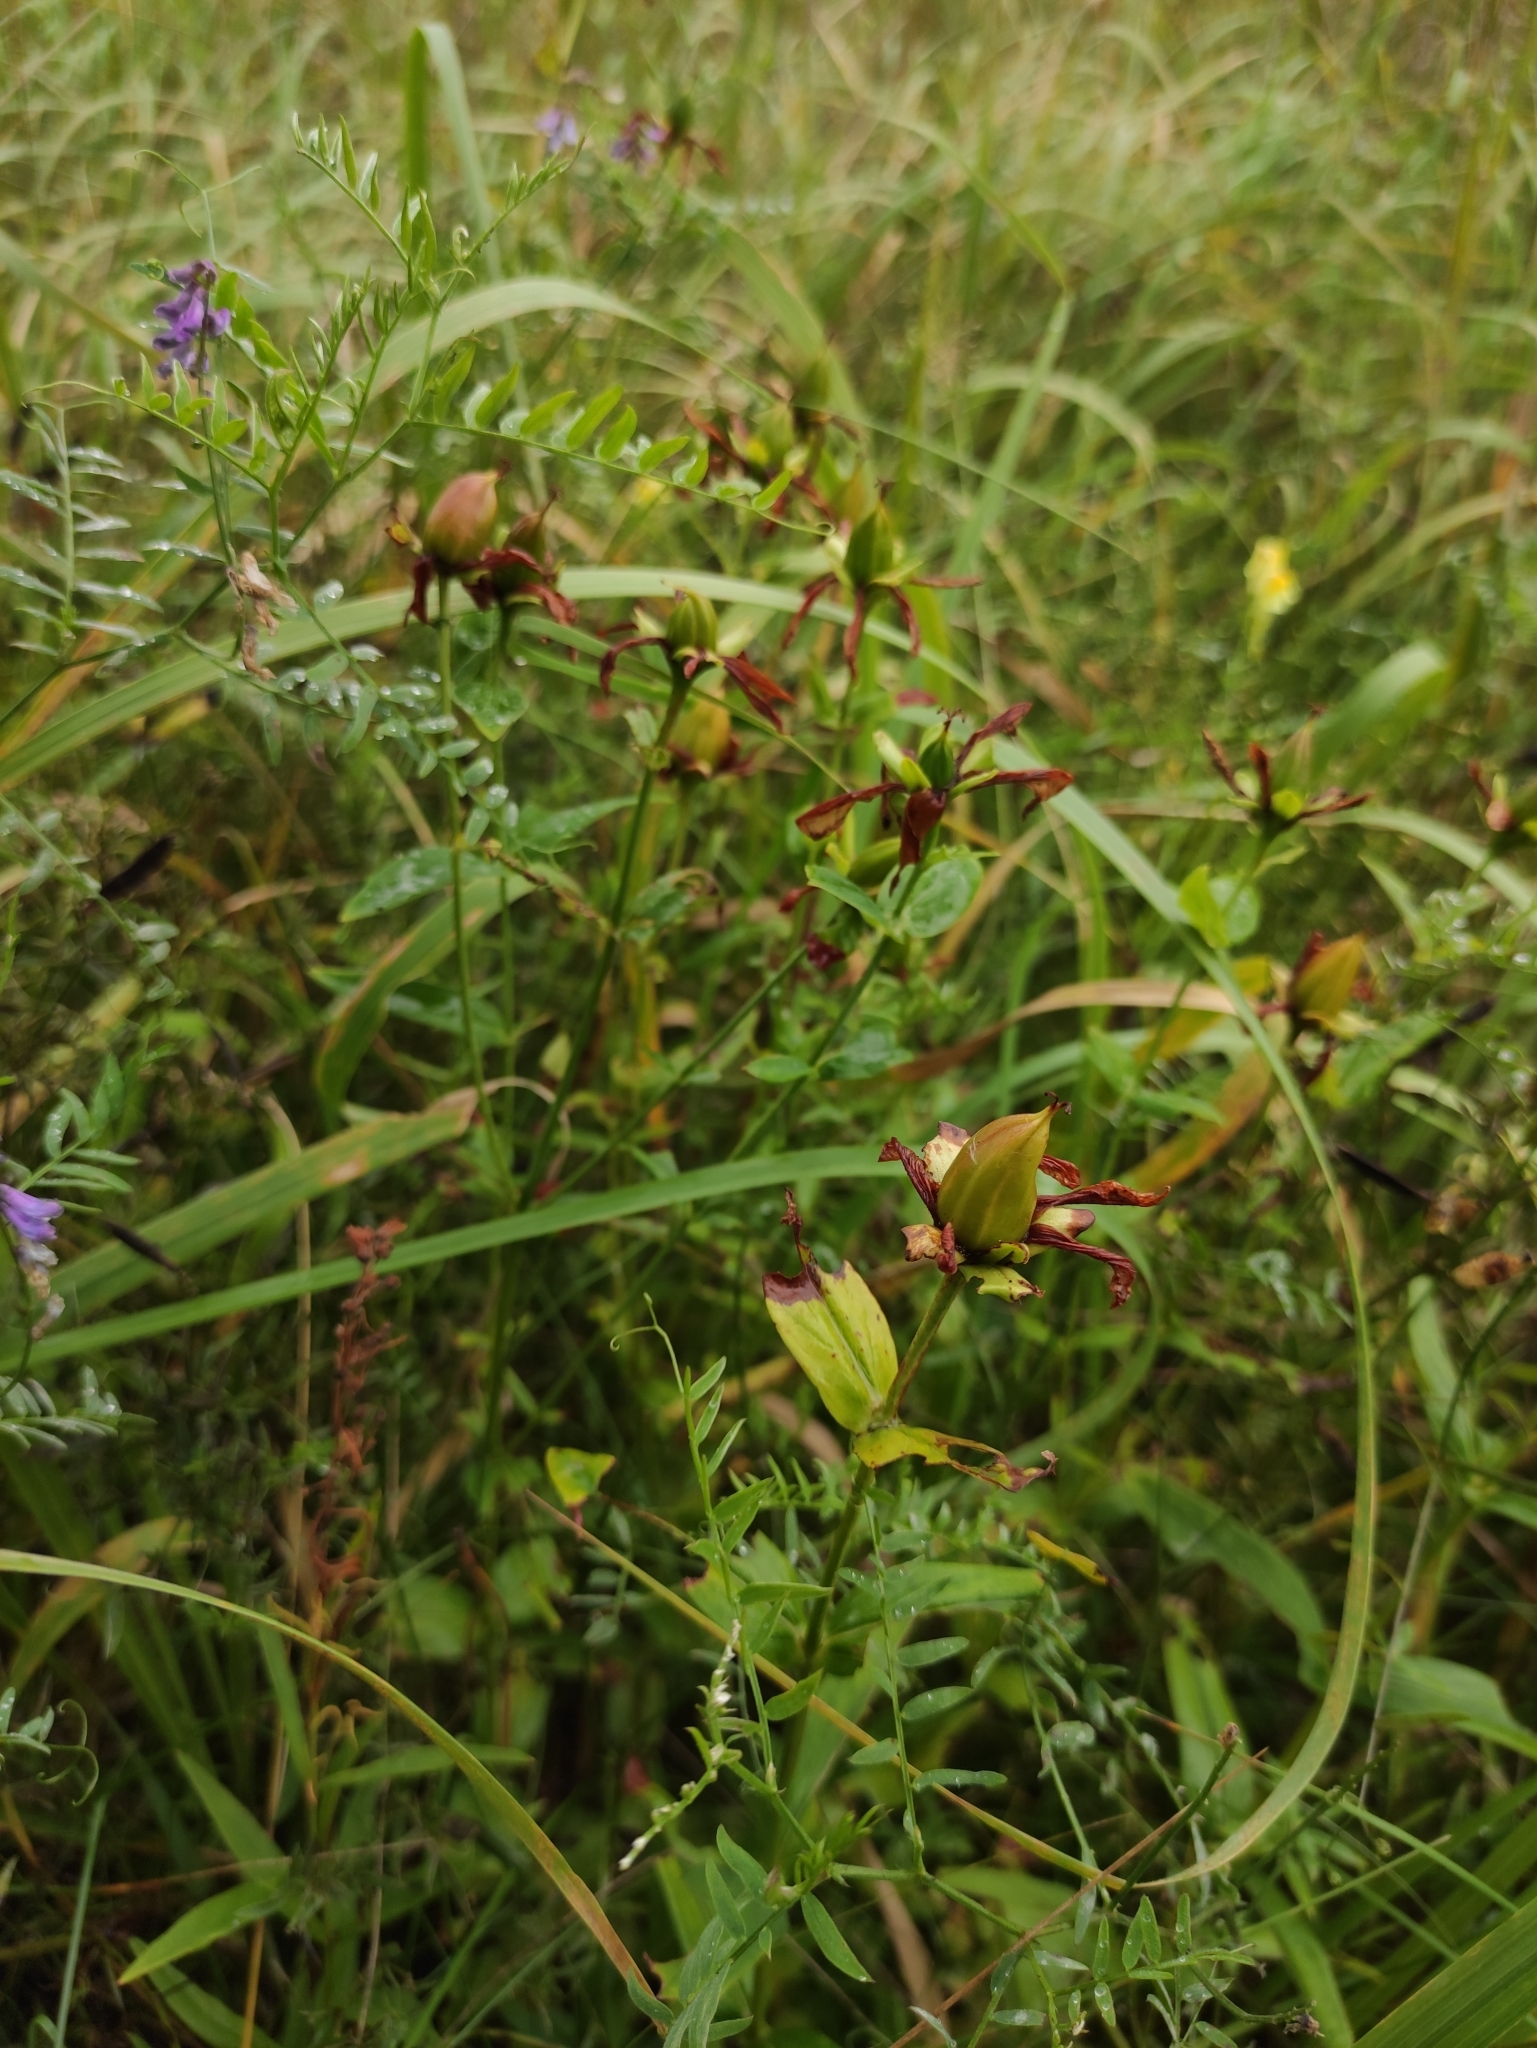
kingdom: Plantae
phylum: Tracheophyta
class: Magnoliopsida
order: Malpighiales
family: Hypericaceae
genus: Hypericum
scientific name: Hypericum ascyron
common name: Giant st. john's-wort
